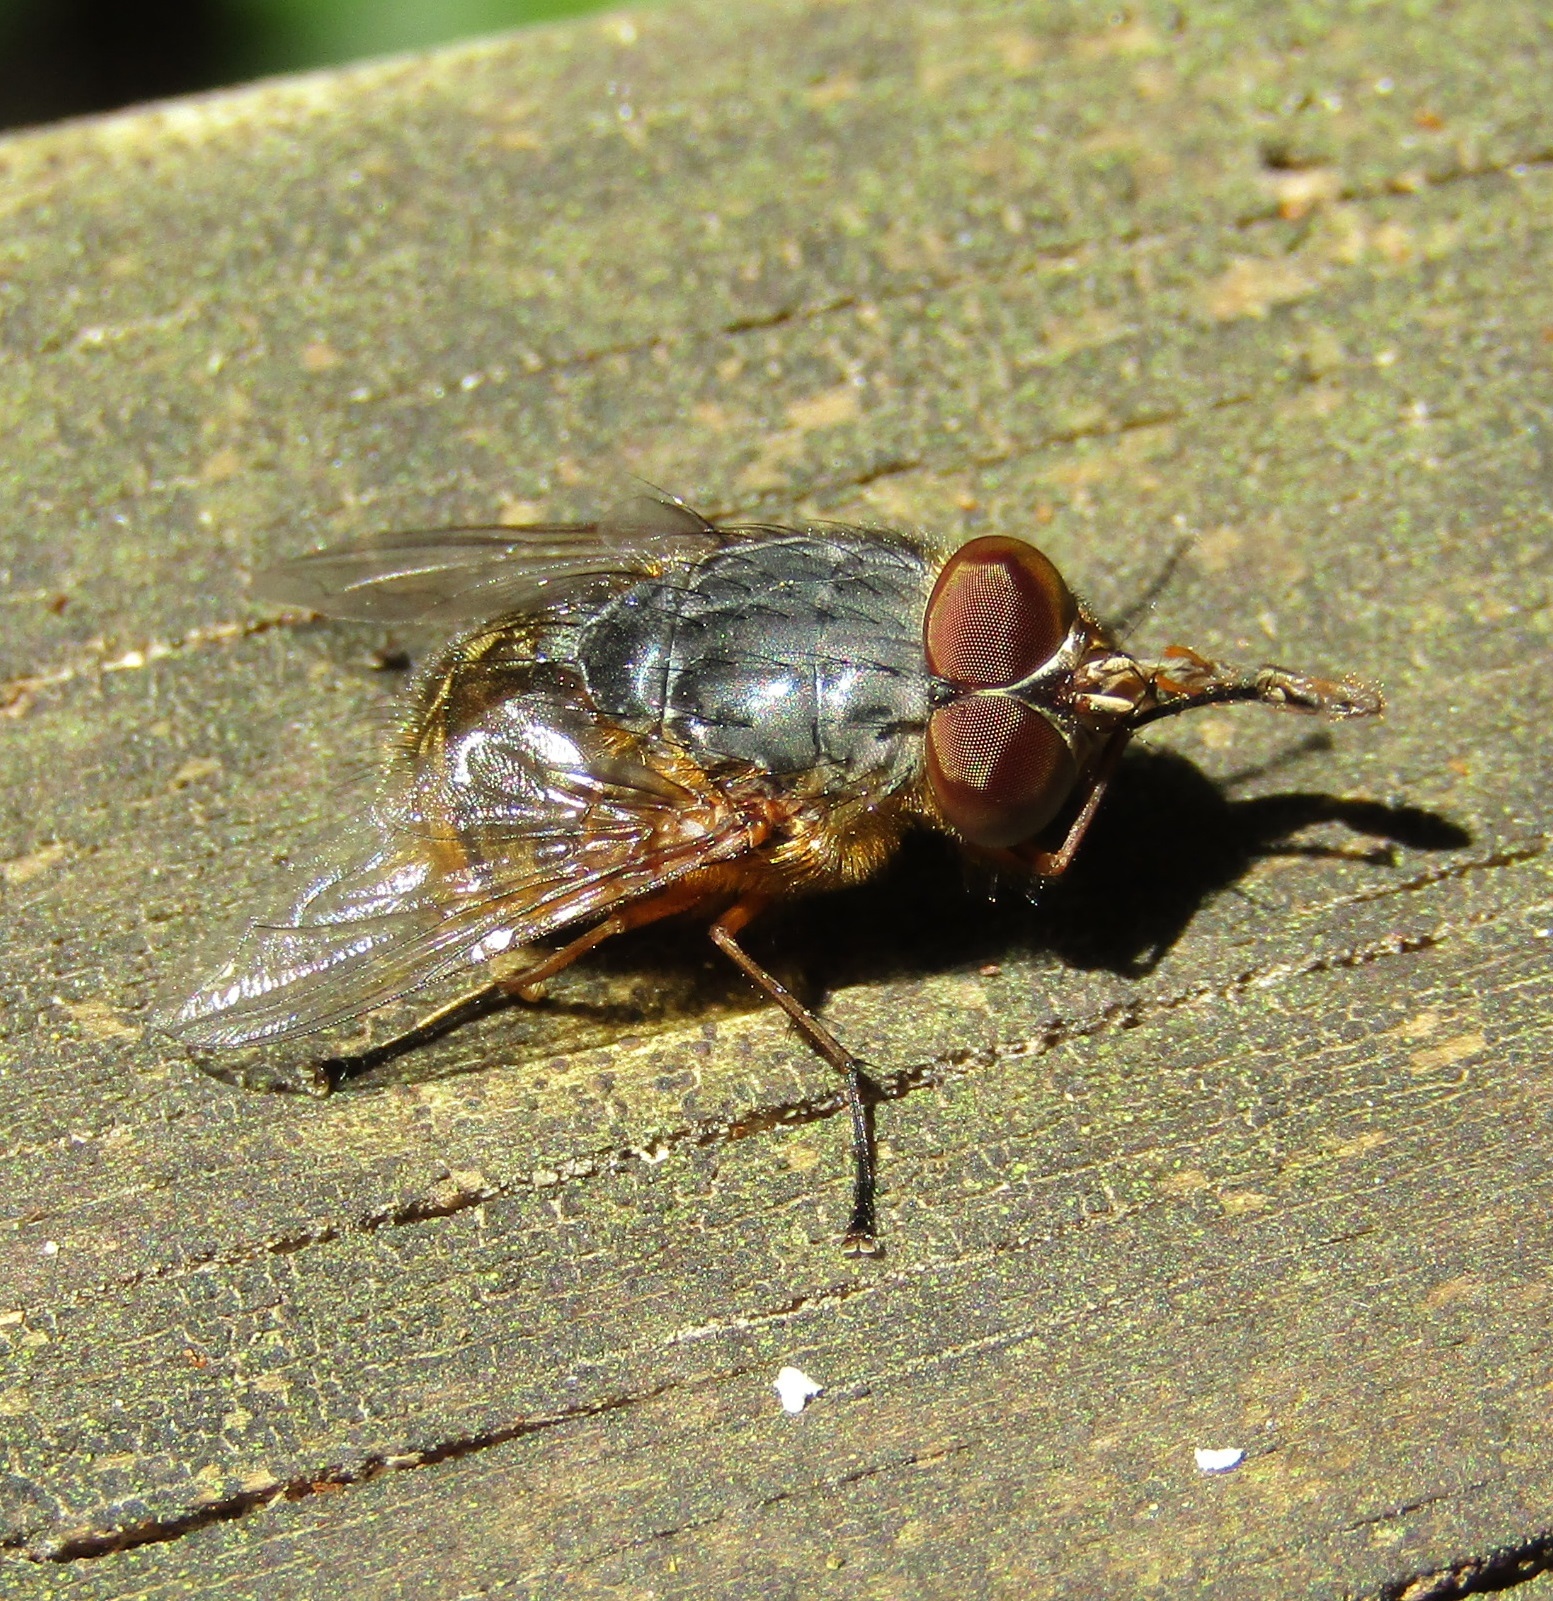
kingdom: Animalia
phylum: Arthropoda
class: Insecta
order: Diptera
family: Calliphoridae
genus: Calliphora
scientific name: Calliphora stygia
